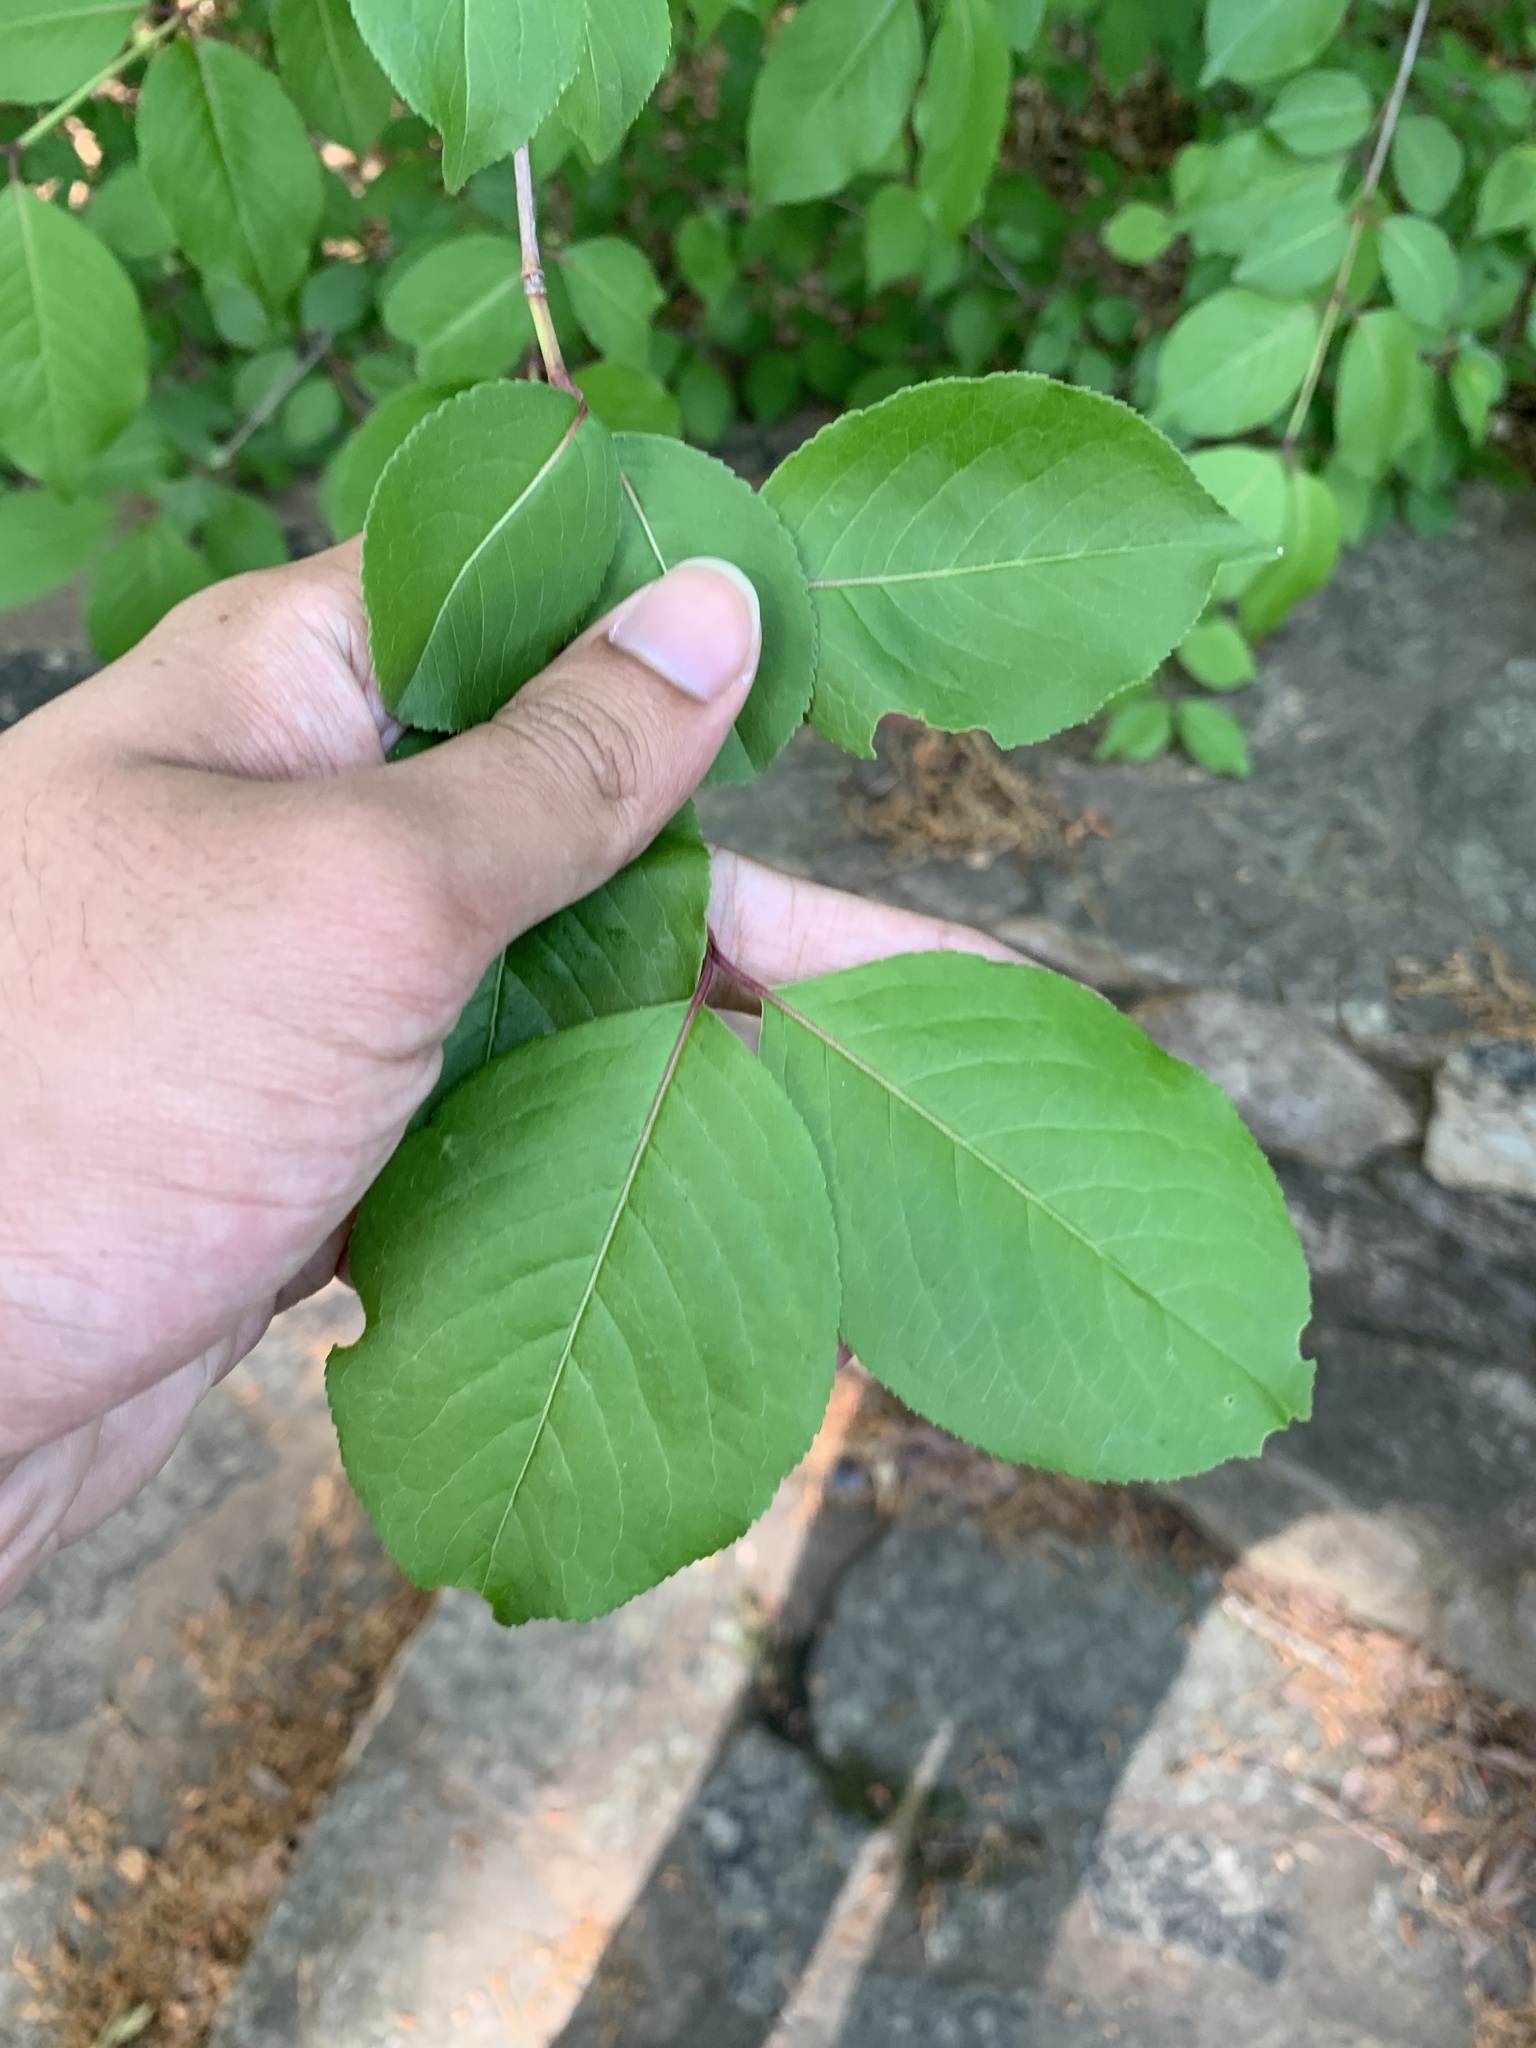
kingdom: Plantae
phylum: Tracheophyta
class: Magnoliopsida
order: Dipsacales
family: Viburnaceae
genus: Viburnum
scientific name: Viburnum prunifolium
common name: Black haw
